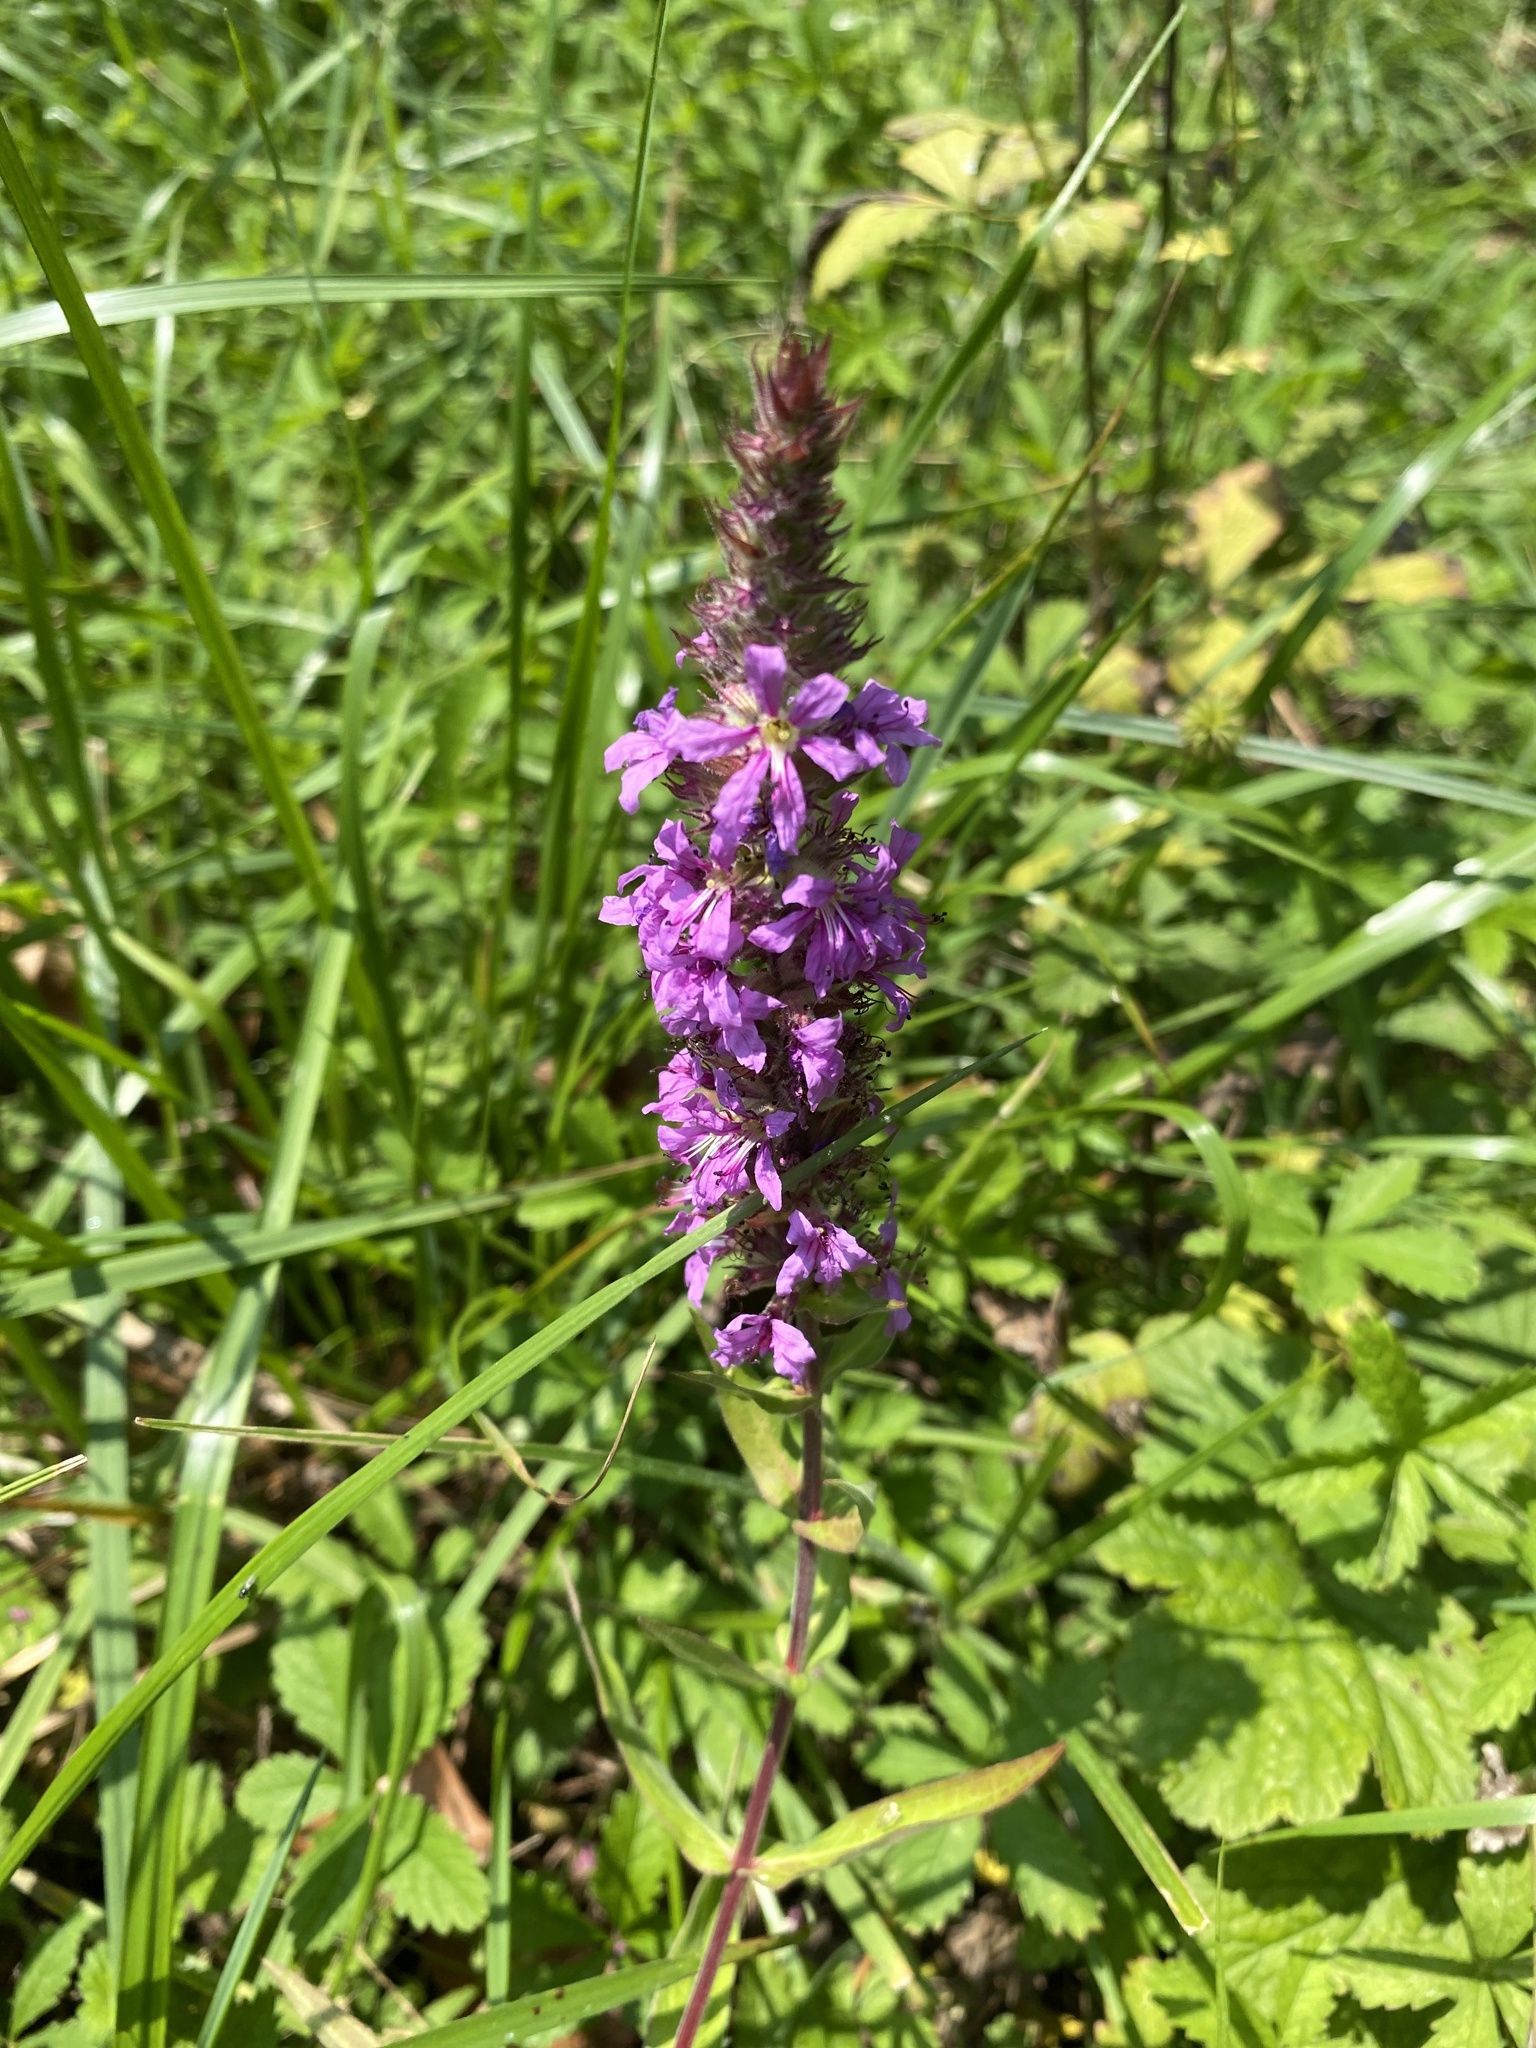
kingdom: Plantae
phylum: Tracheophyta
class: Magnoliopsida
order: Myrtales
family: Lythraceae
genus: Lythrum
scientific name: Lythrum salicaria
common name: Purple loosestrife
